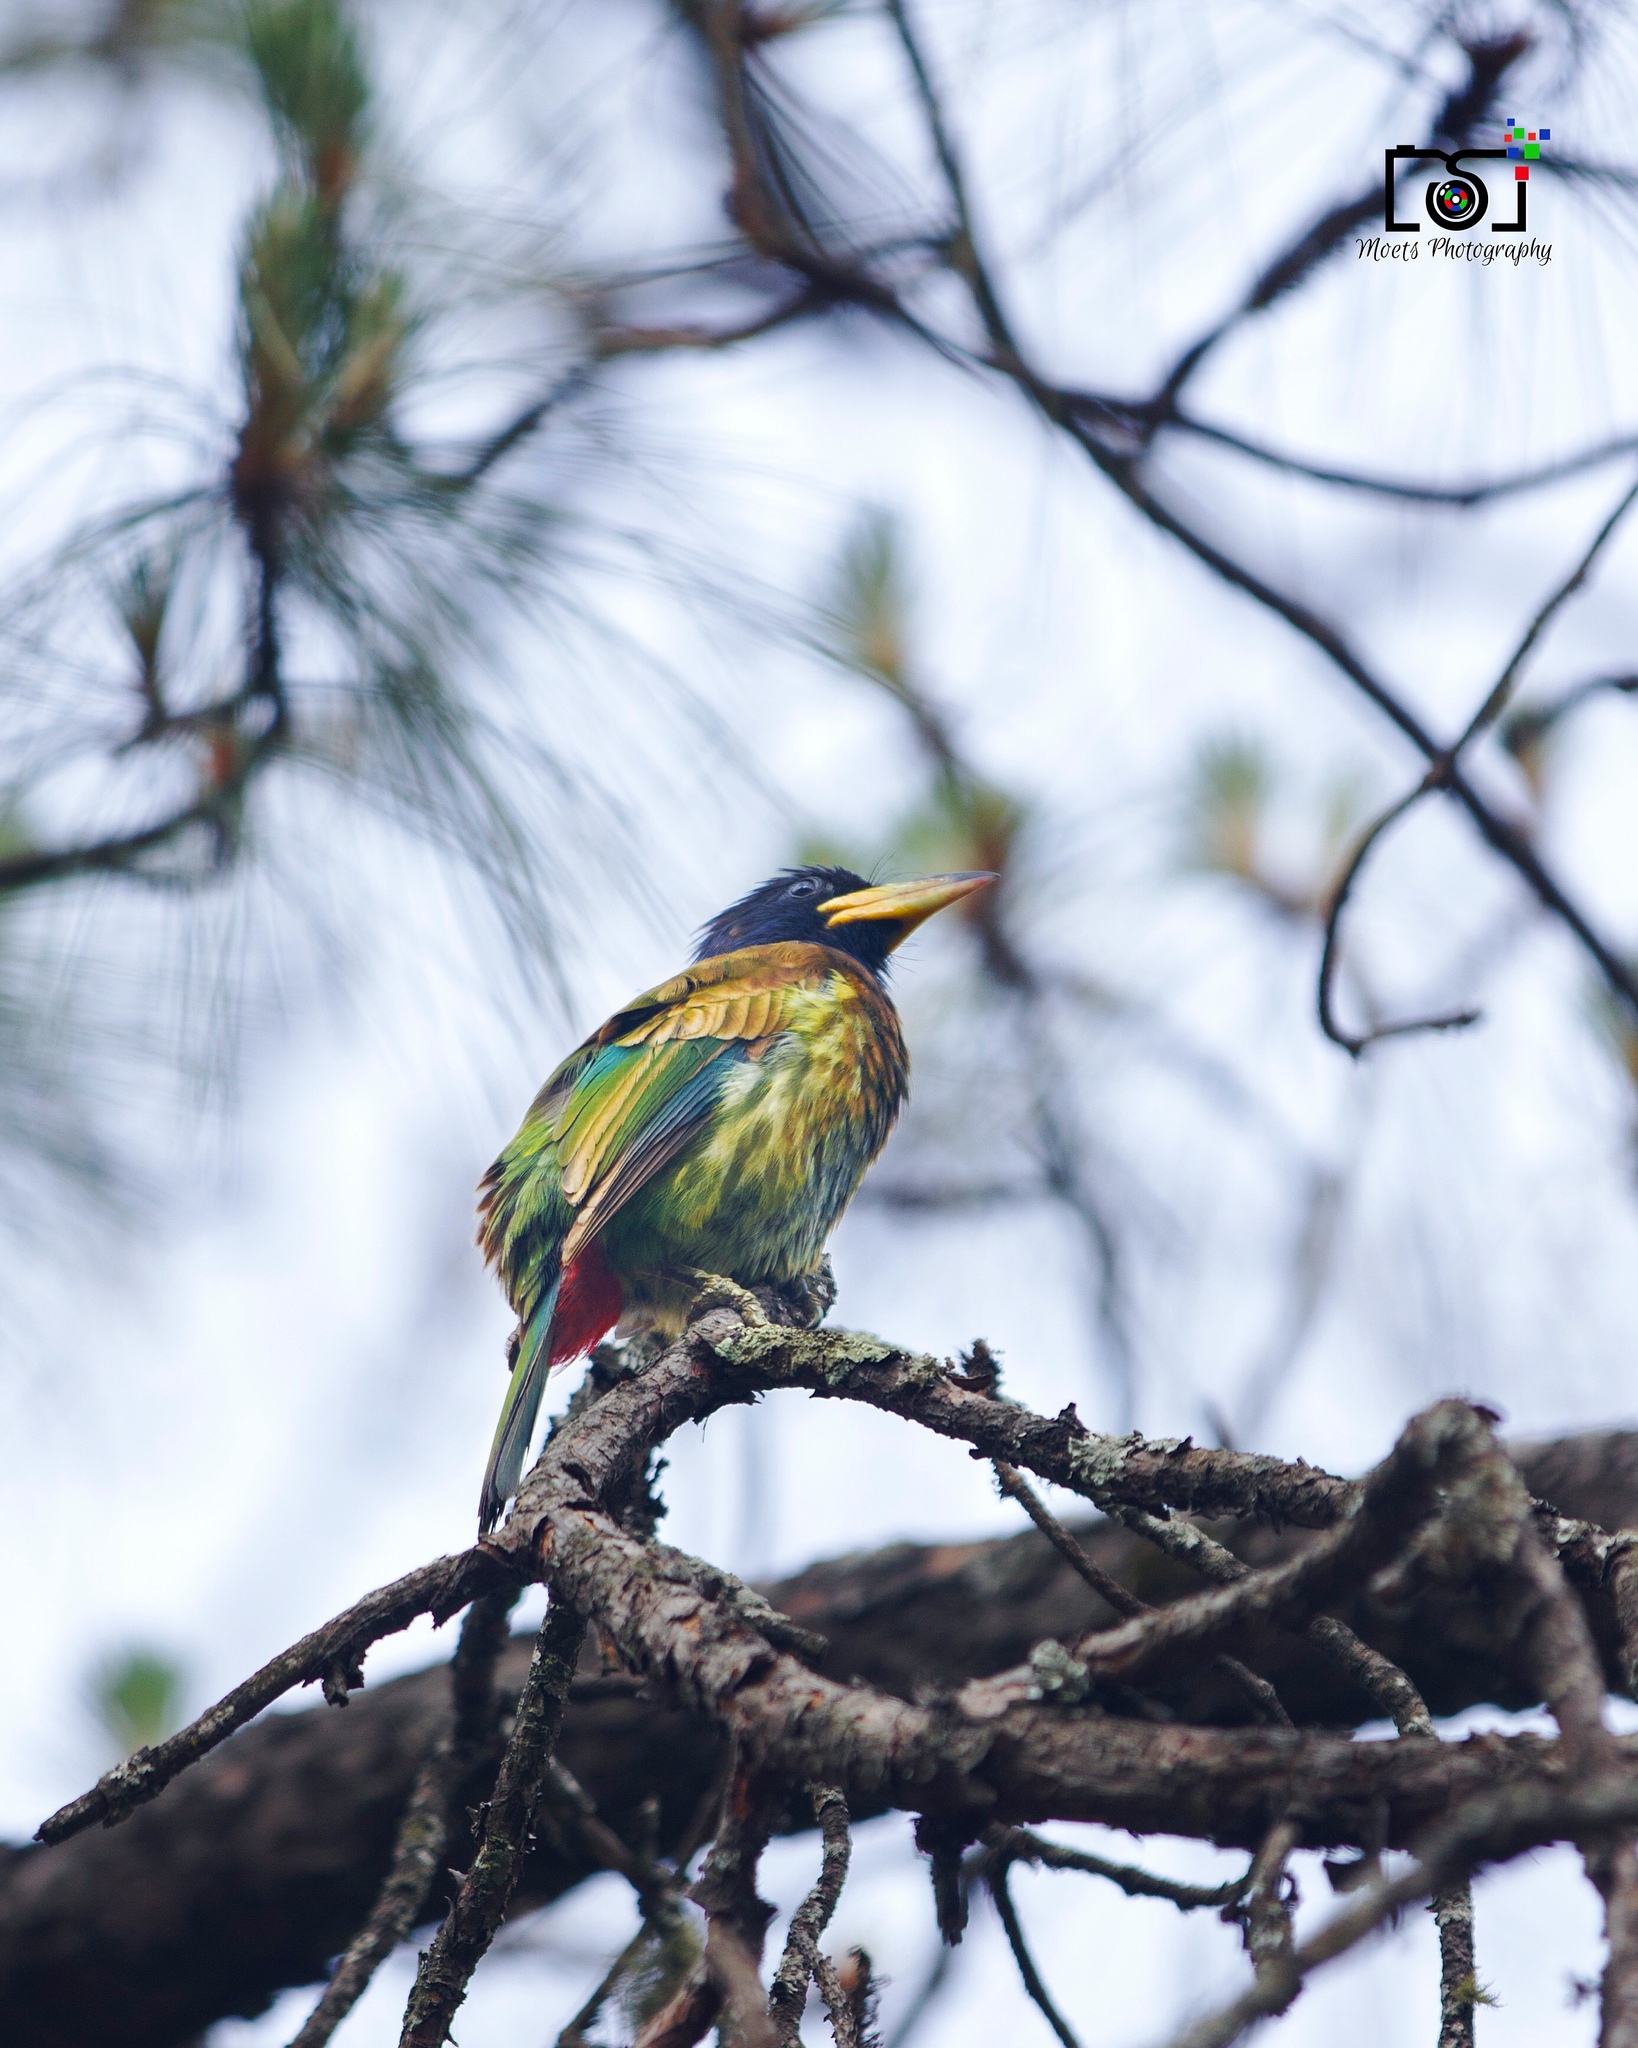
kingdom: Animalia
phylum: Chordata
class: Aves
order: Piciformes
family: Megalaimidae
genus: Psilopogon
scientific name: Psilopogon virens
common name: Great barbet
